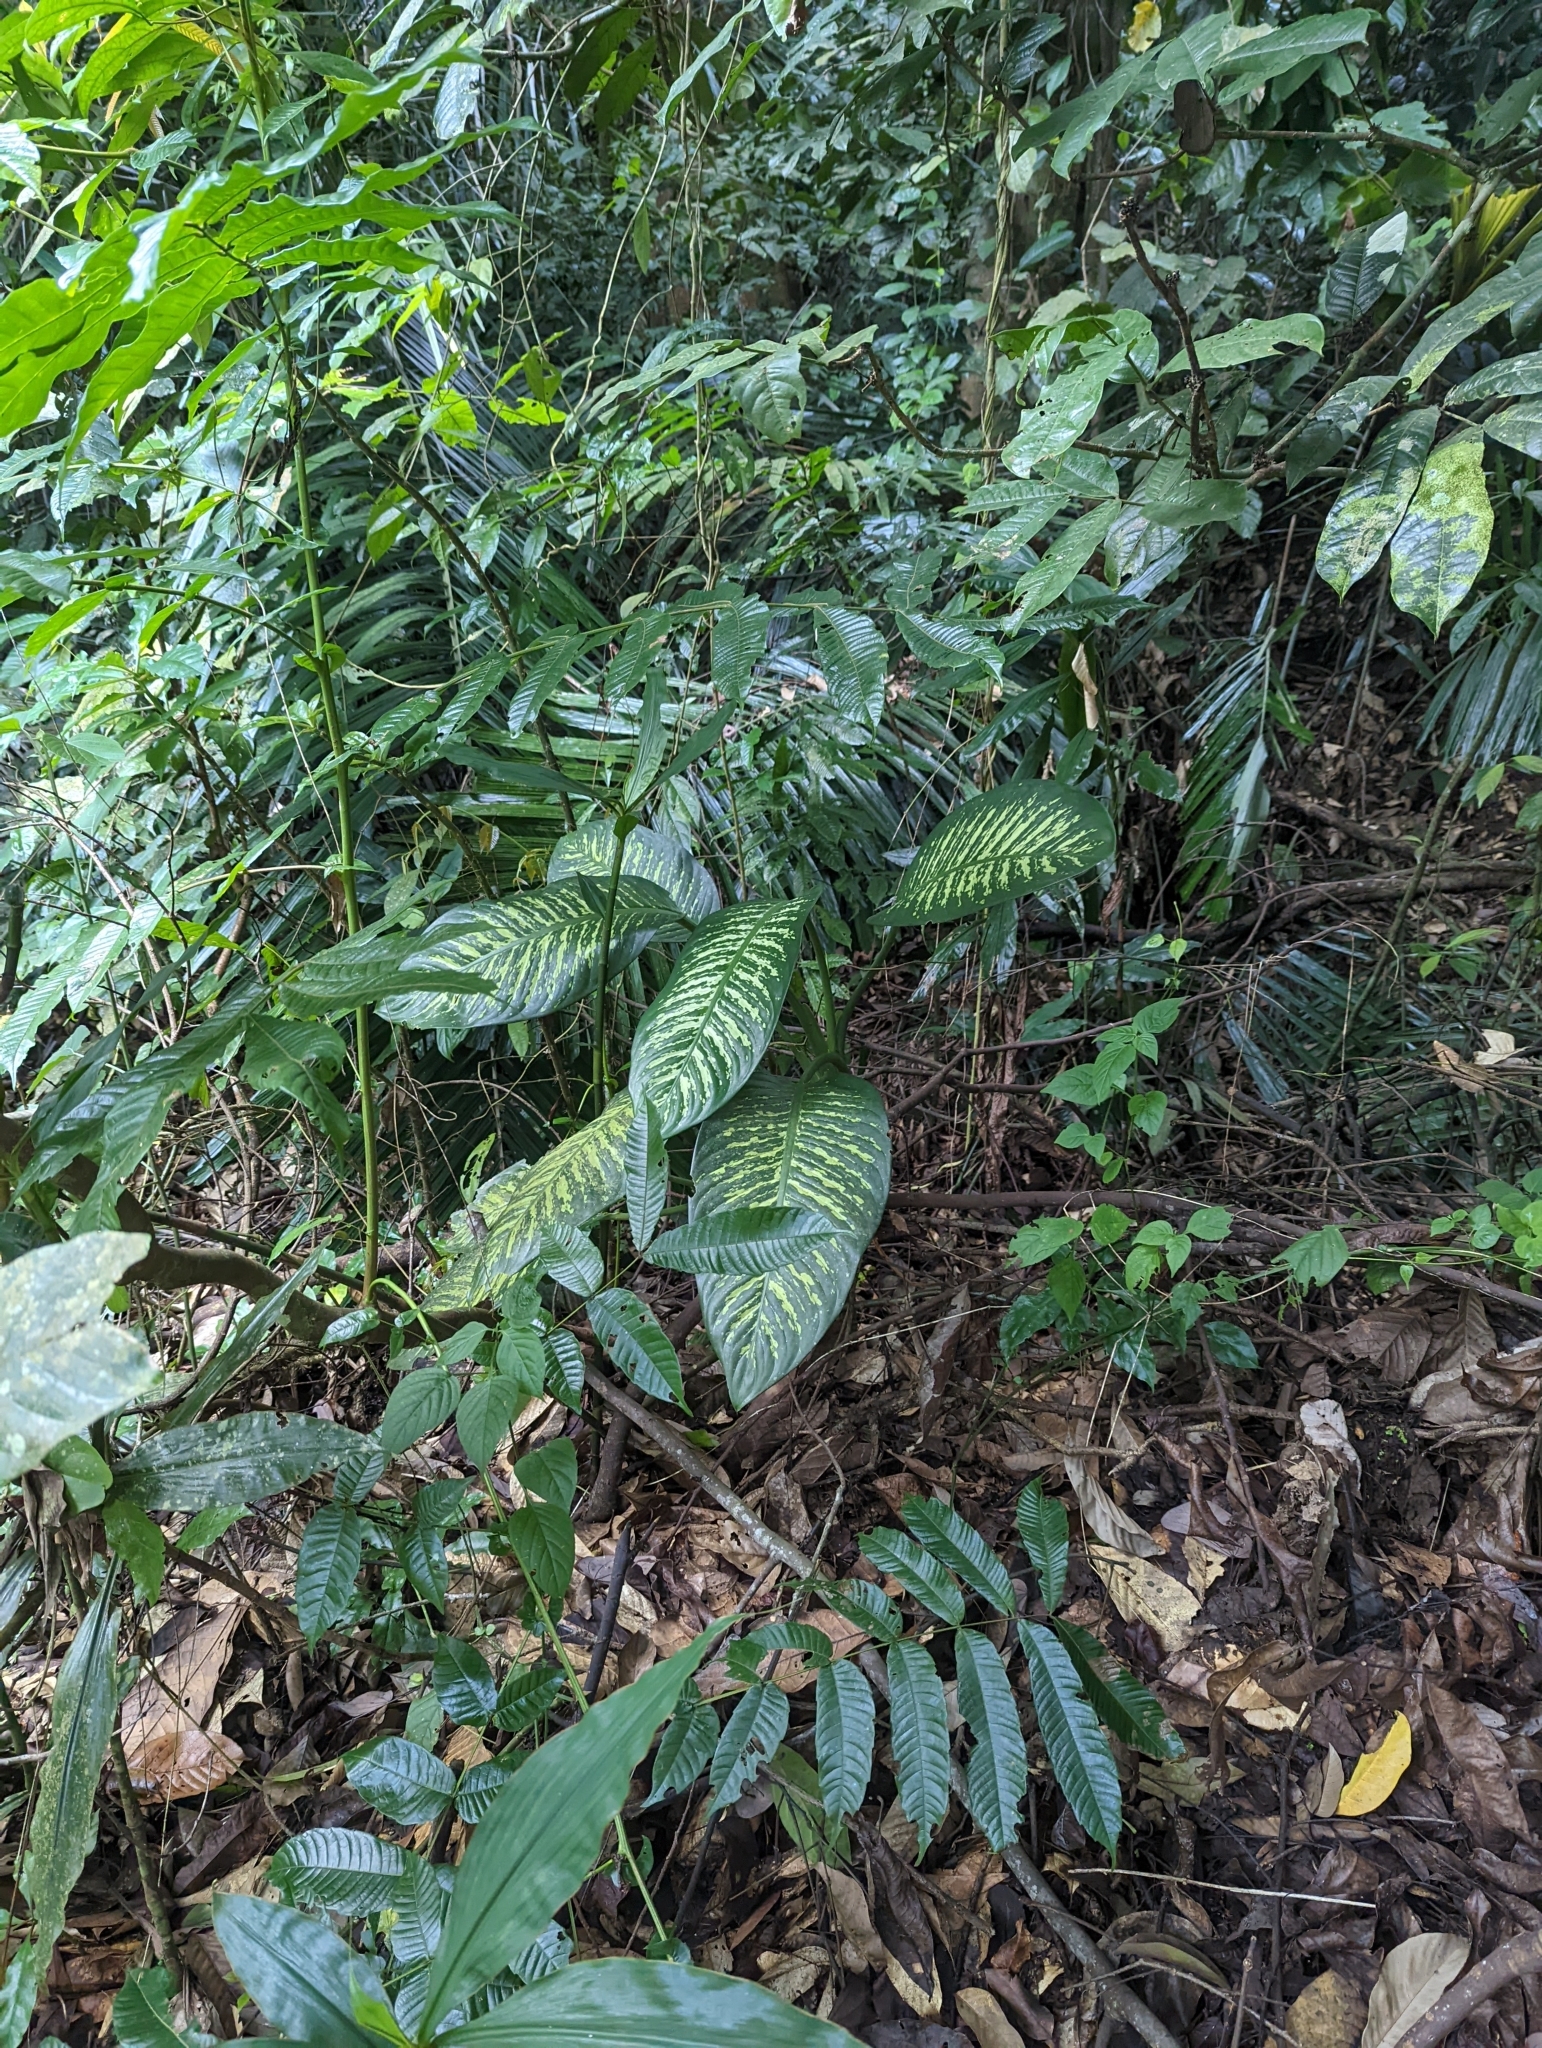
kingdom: Plantae
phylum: Tracheophyta
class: Liliopsida
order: Alismatales
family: Araceae
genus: Dieffenbachia
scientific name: Dieffenbachia seguine
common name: Dumbcane
